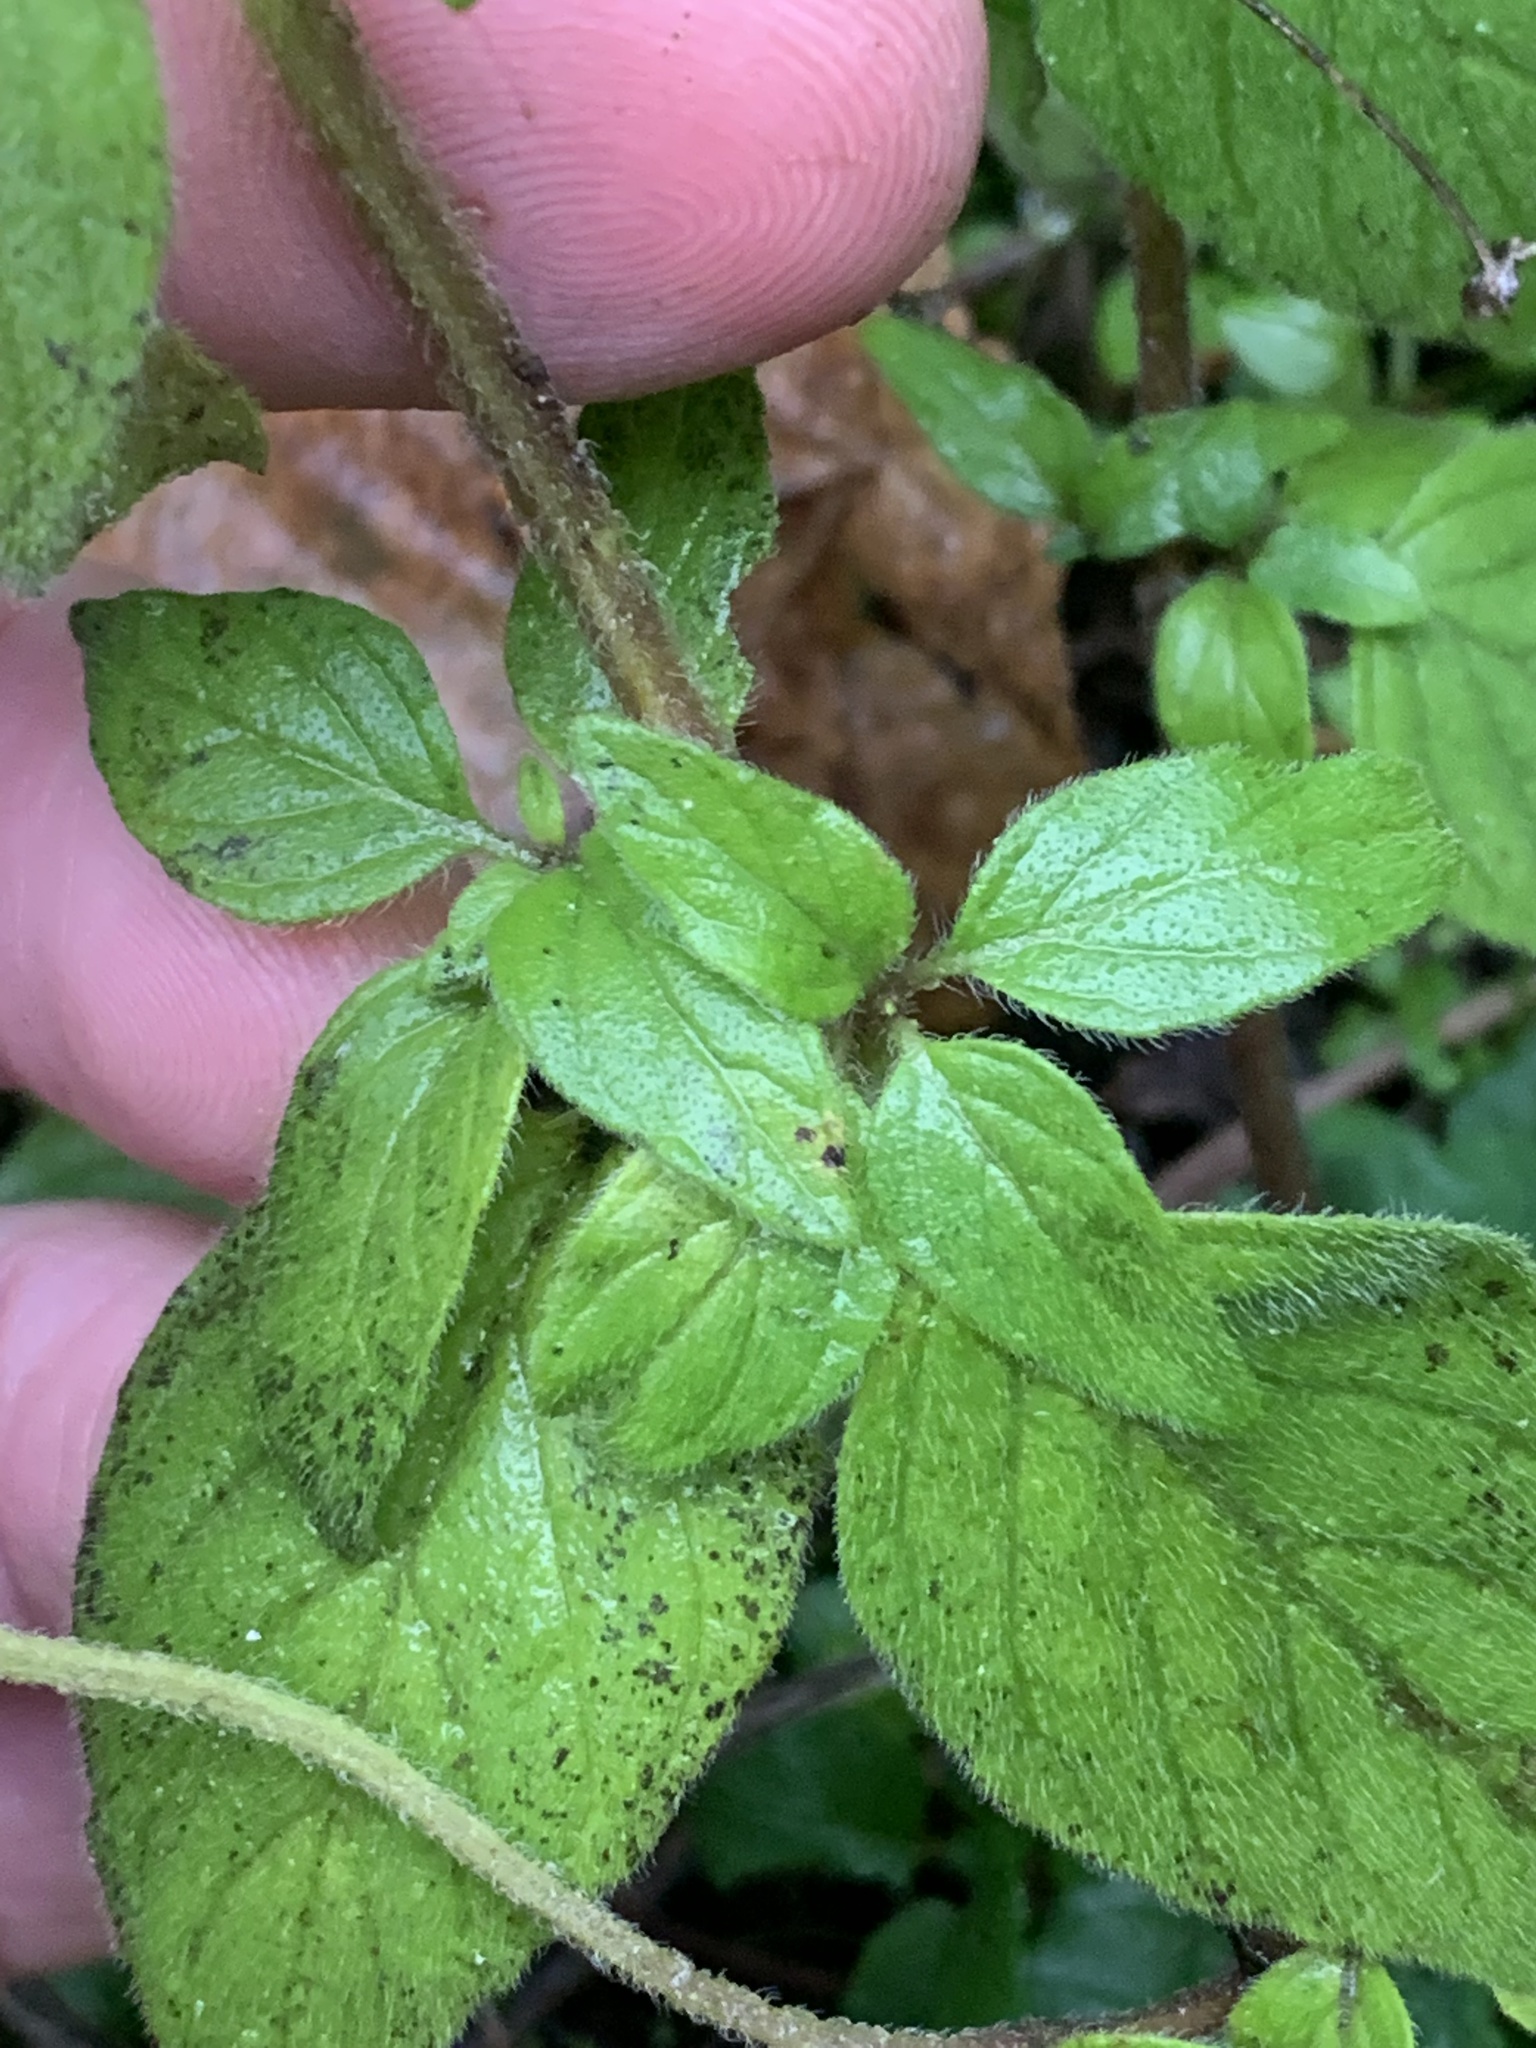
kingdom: Plantae
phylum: Tracheophyta
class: Magnoliopsida
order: Lamiales
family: Lamiaceae
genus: Clinopodium
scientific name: Clinopodium vulgare
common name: Wild basil
